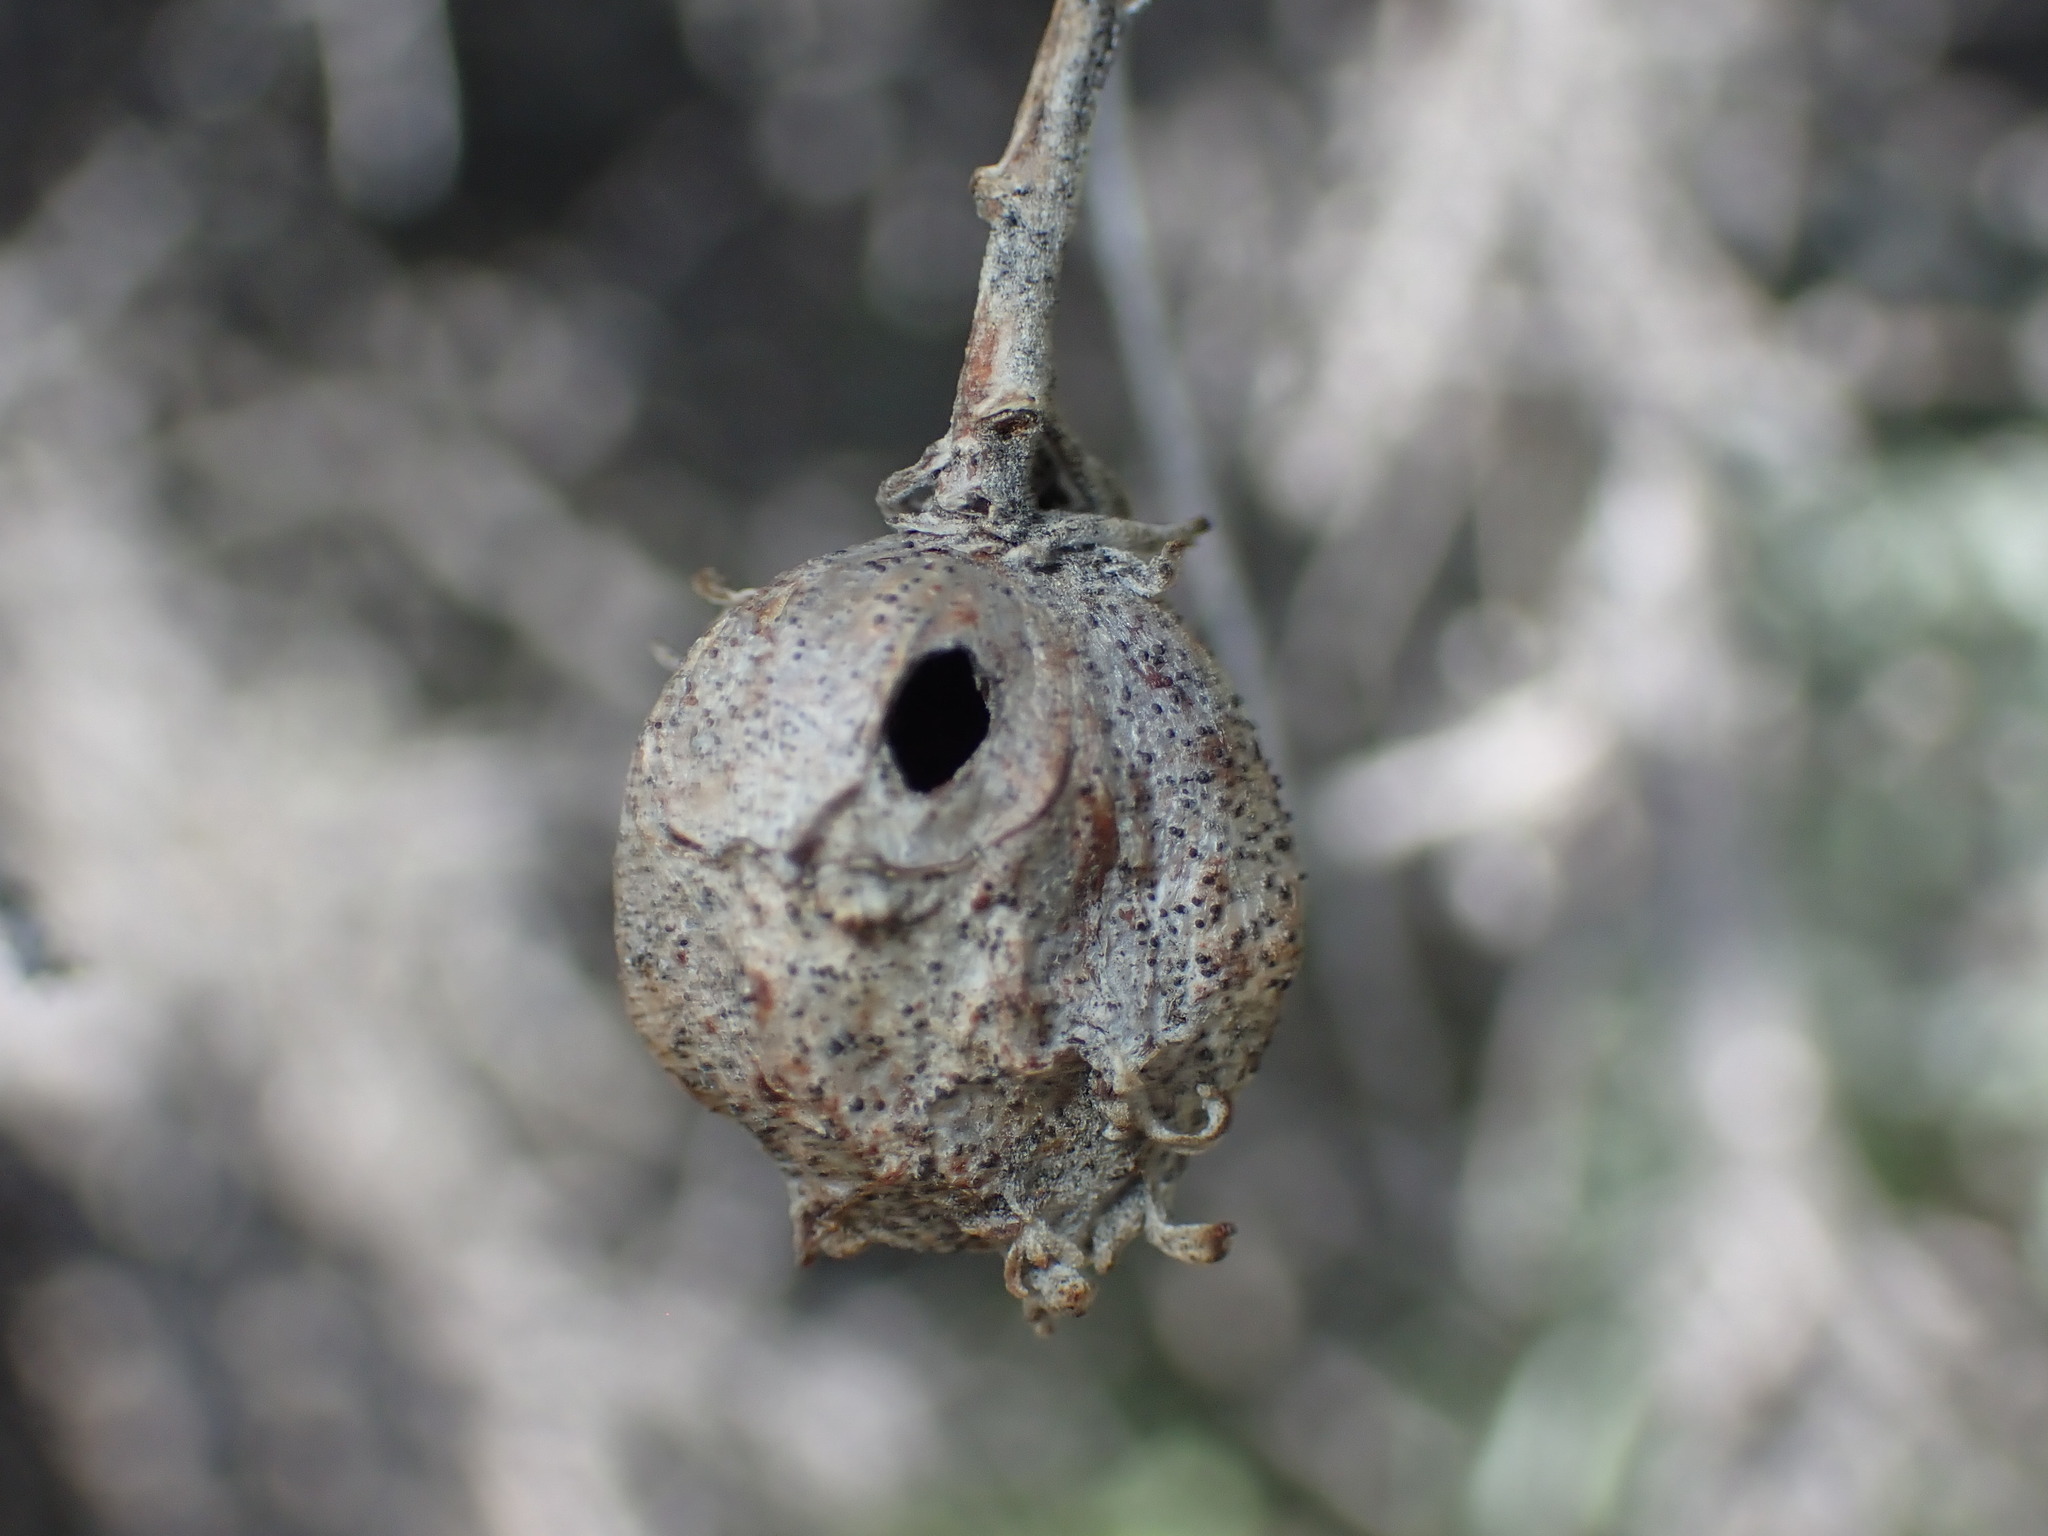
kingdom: Animalia
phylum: Arthropoda
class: Insecta
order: Diptera
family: Tephritidae
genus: Eutreta
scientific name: Eutreta diana
